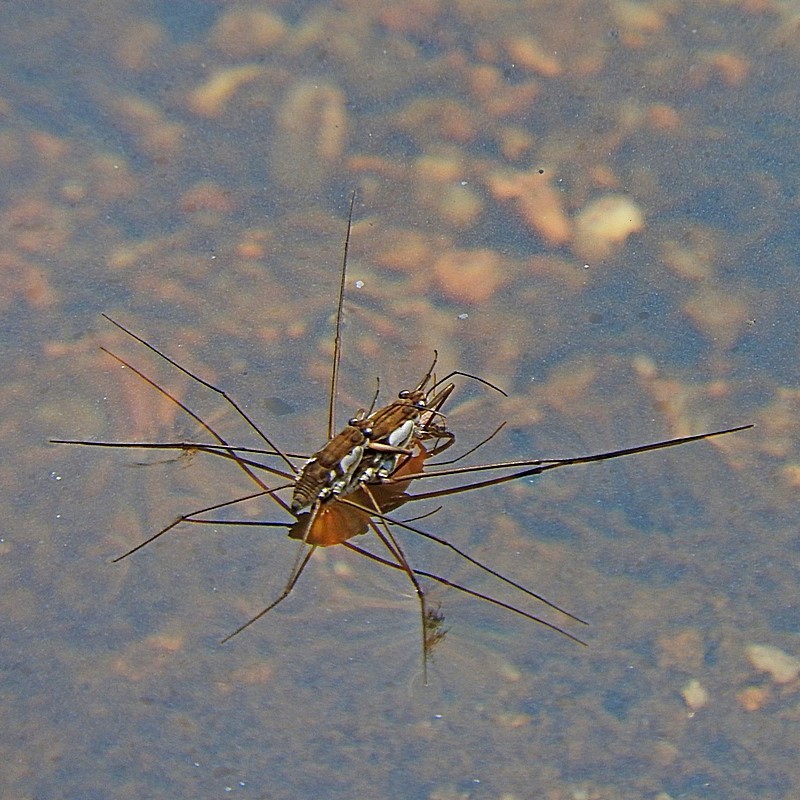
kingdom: Animalia
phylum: Arthropoda
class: Insecta
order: Hemiptera
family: Gerridae
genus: Tenagogerris
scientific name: Tenagogerris euphrosyne
